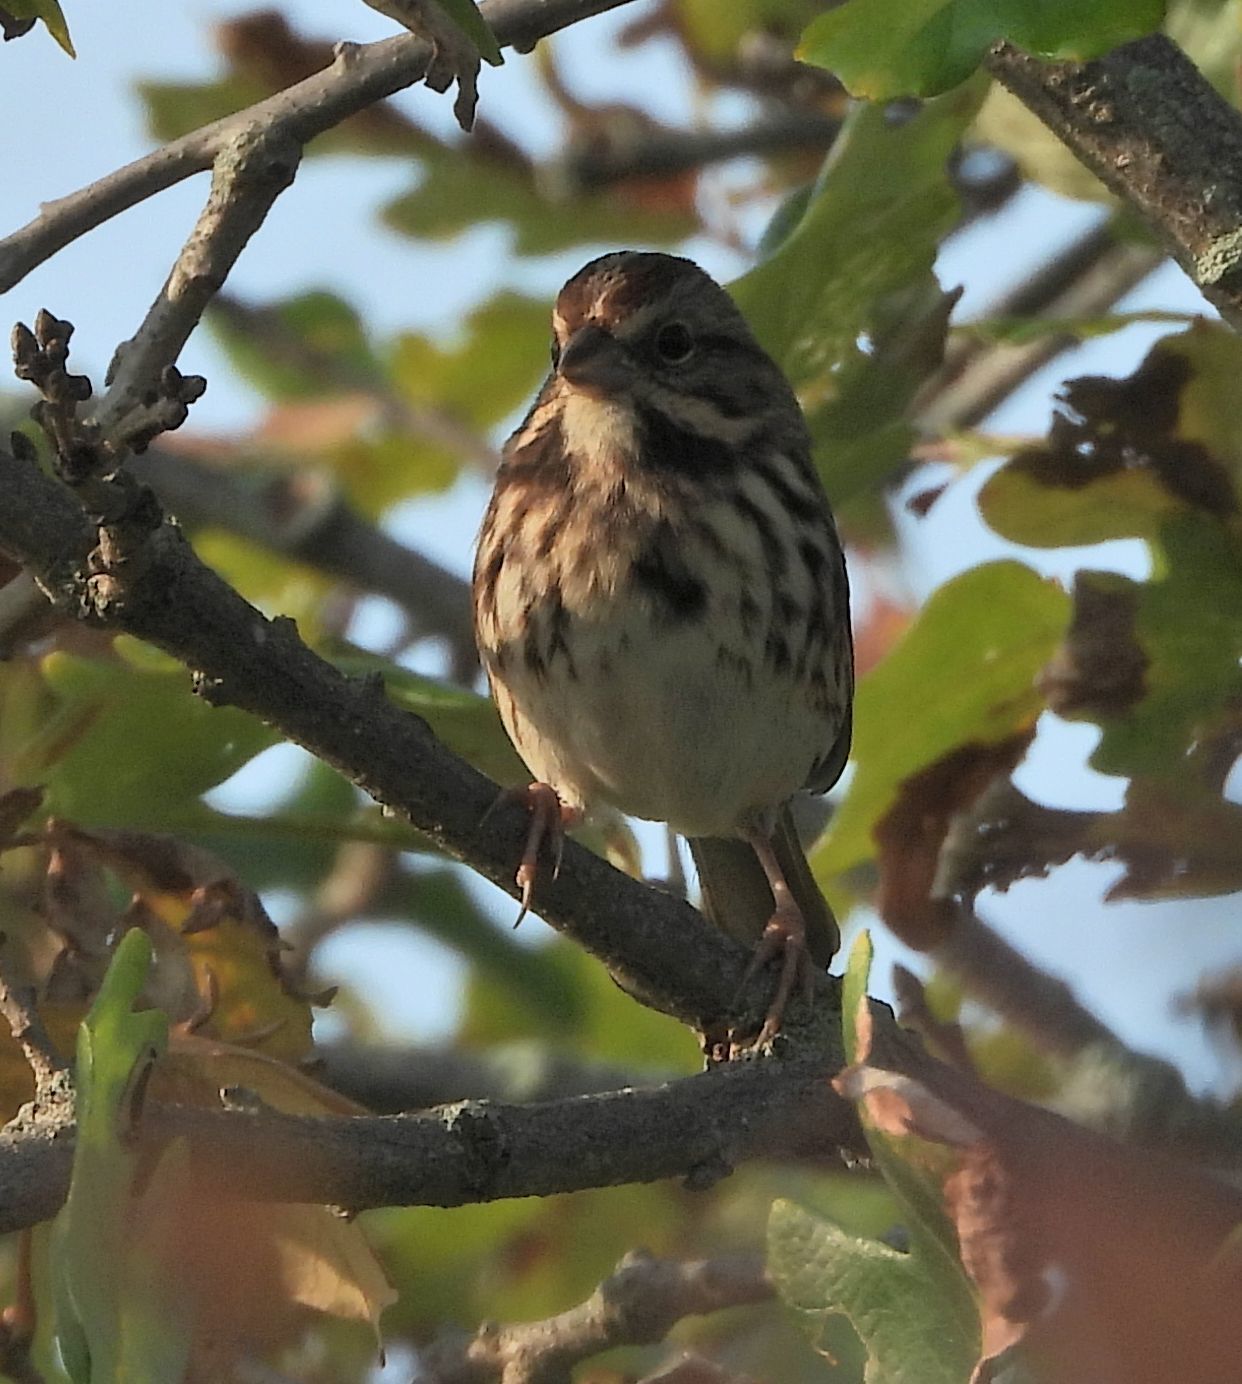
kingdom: Animalia
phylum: Chordata
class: Aves
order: Passeriformes
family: Passerellidae
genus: Melospiza
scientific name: Melospiza melodia
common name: Song sparrow
